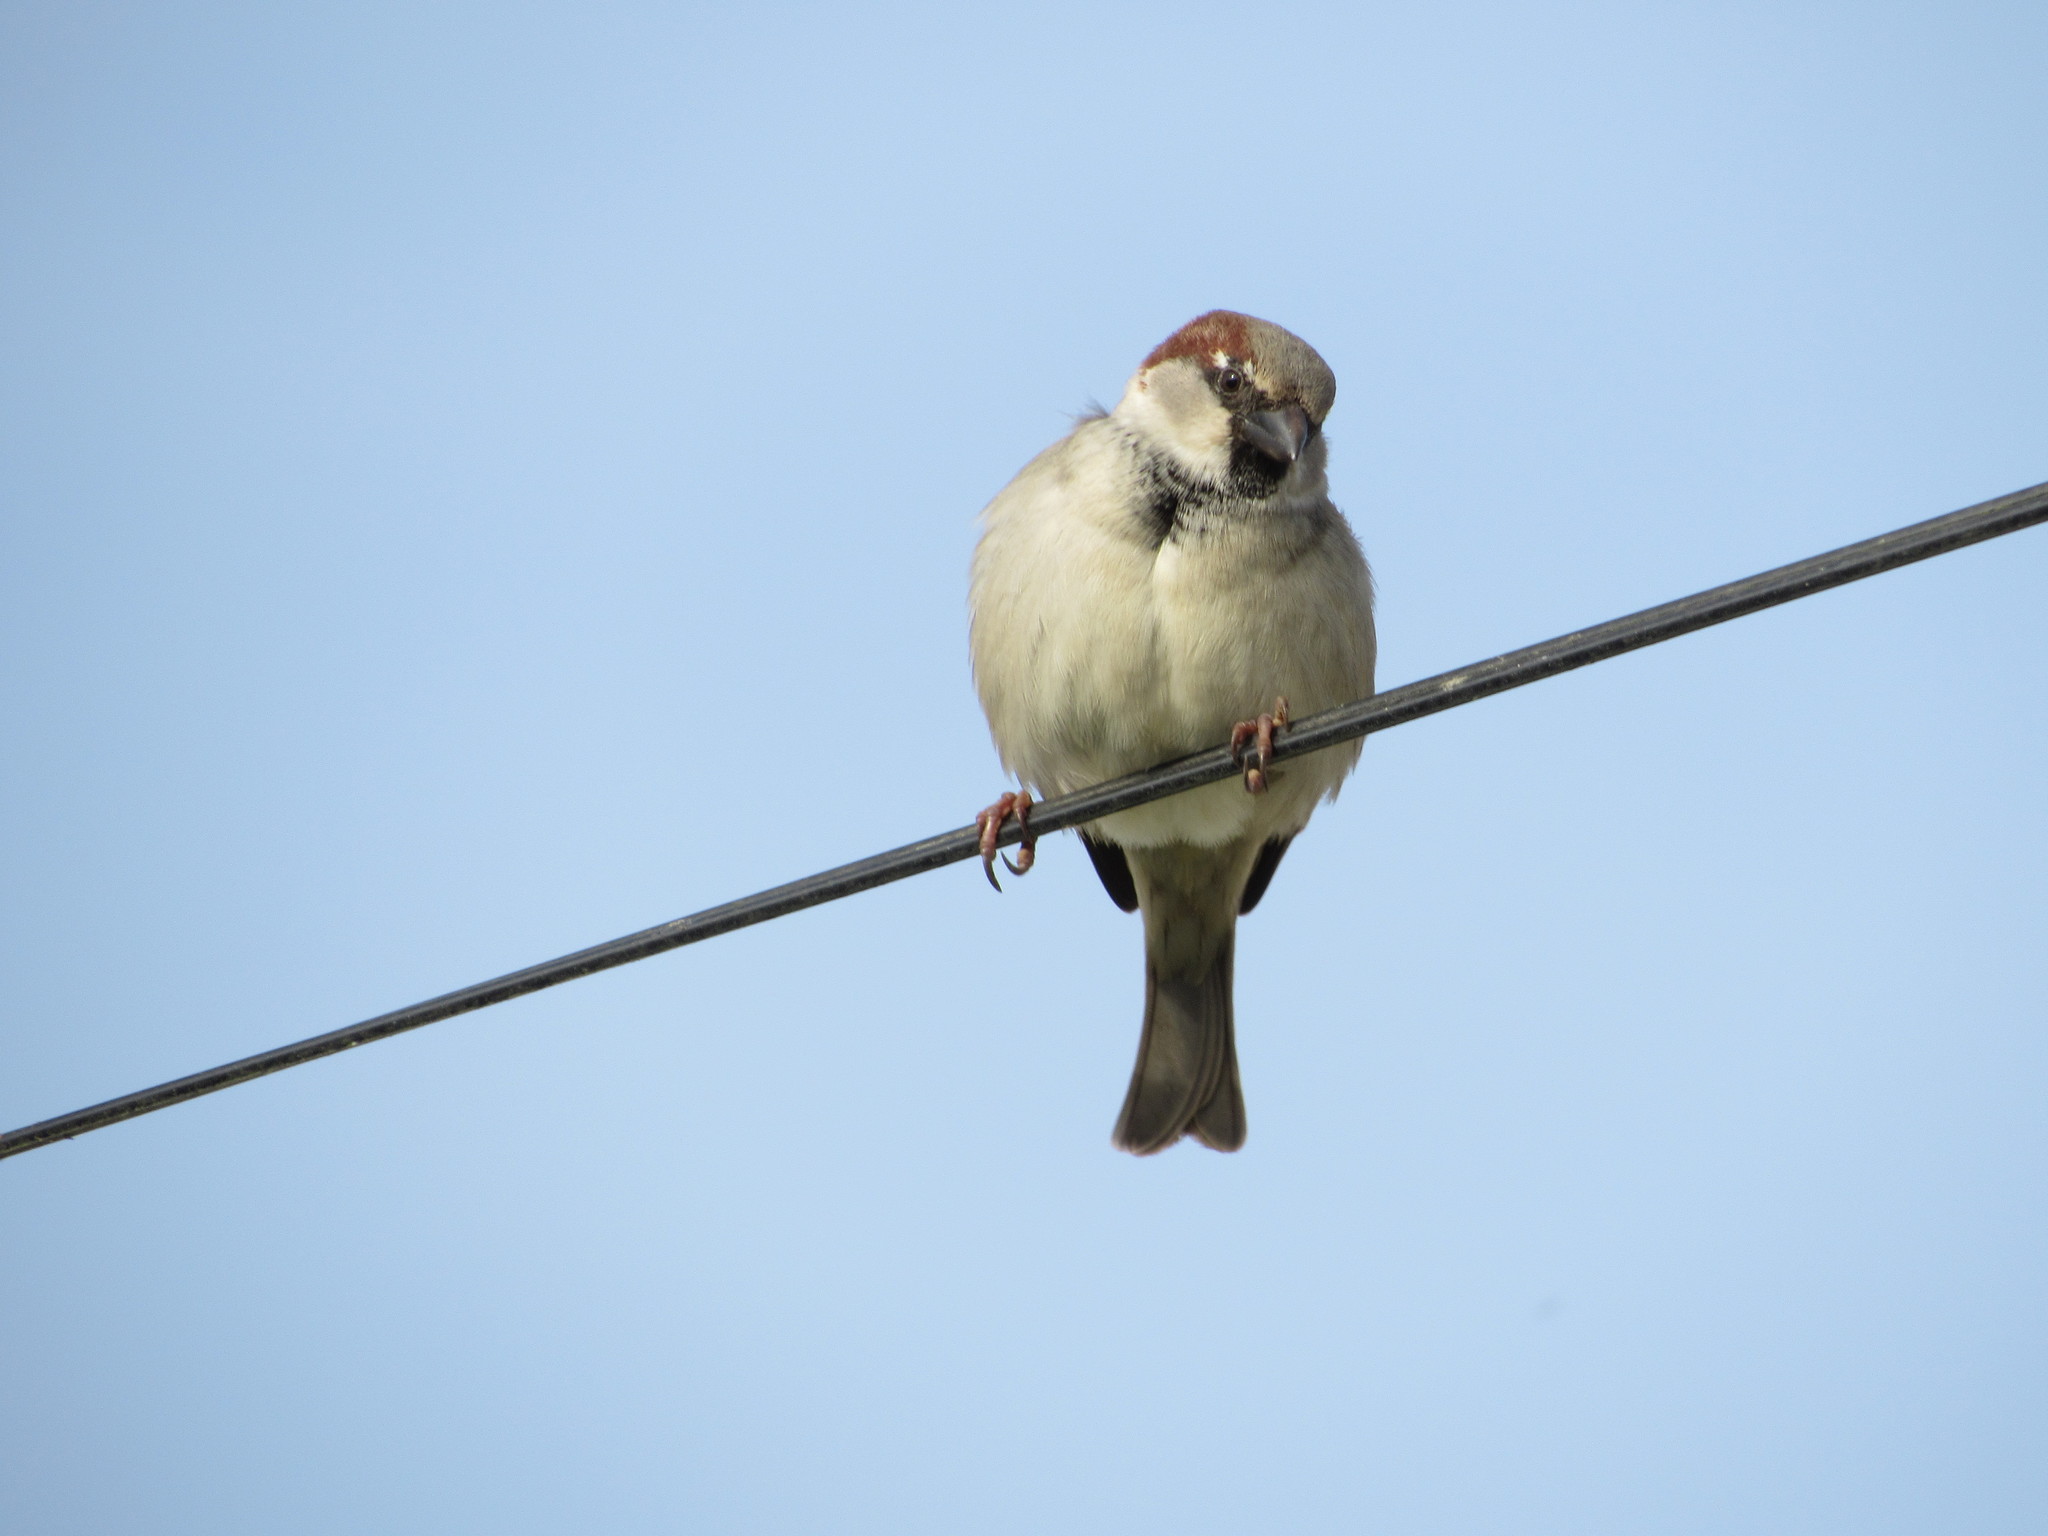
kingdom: Animalia
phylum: Chordata
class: Aves
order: Passeriformes
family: Passeridae
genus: Passer
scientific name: Passer domesticus
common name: House sparrow
